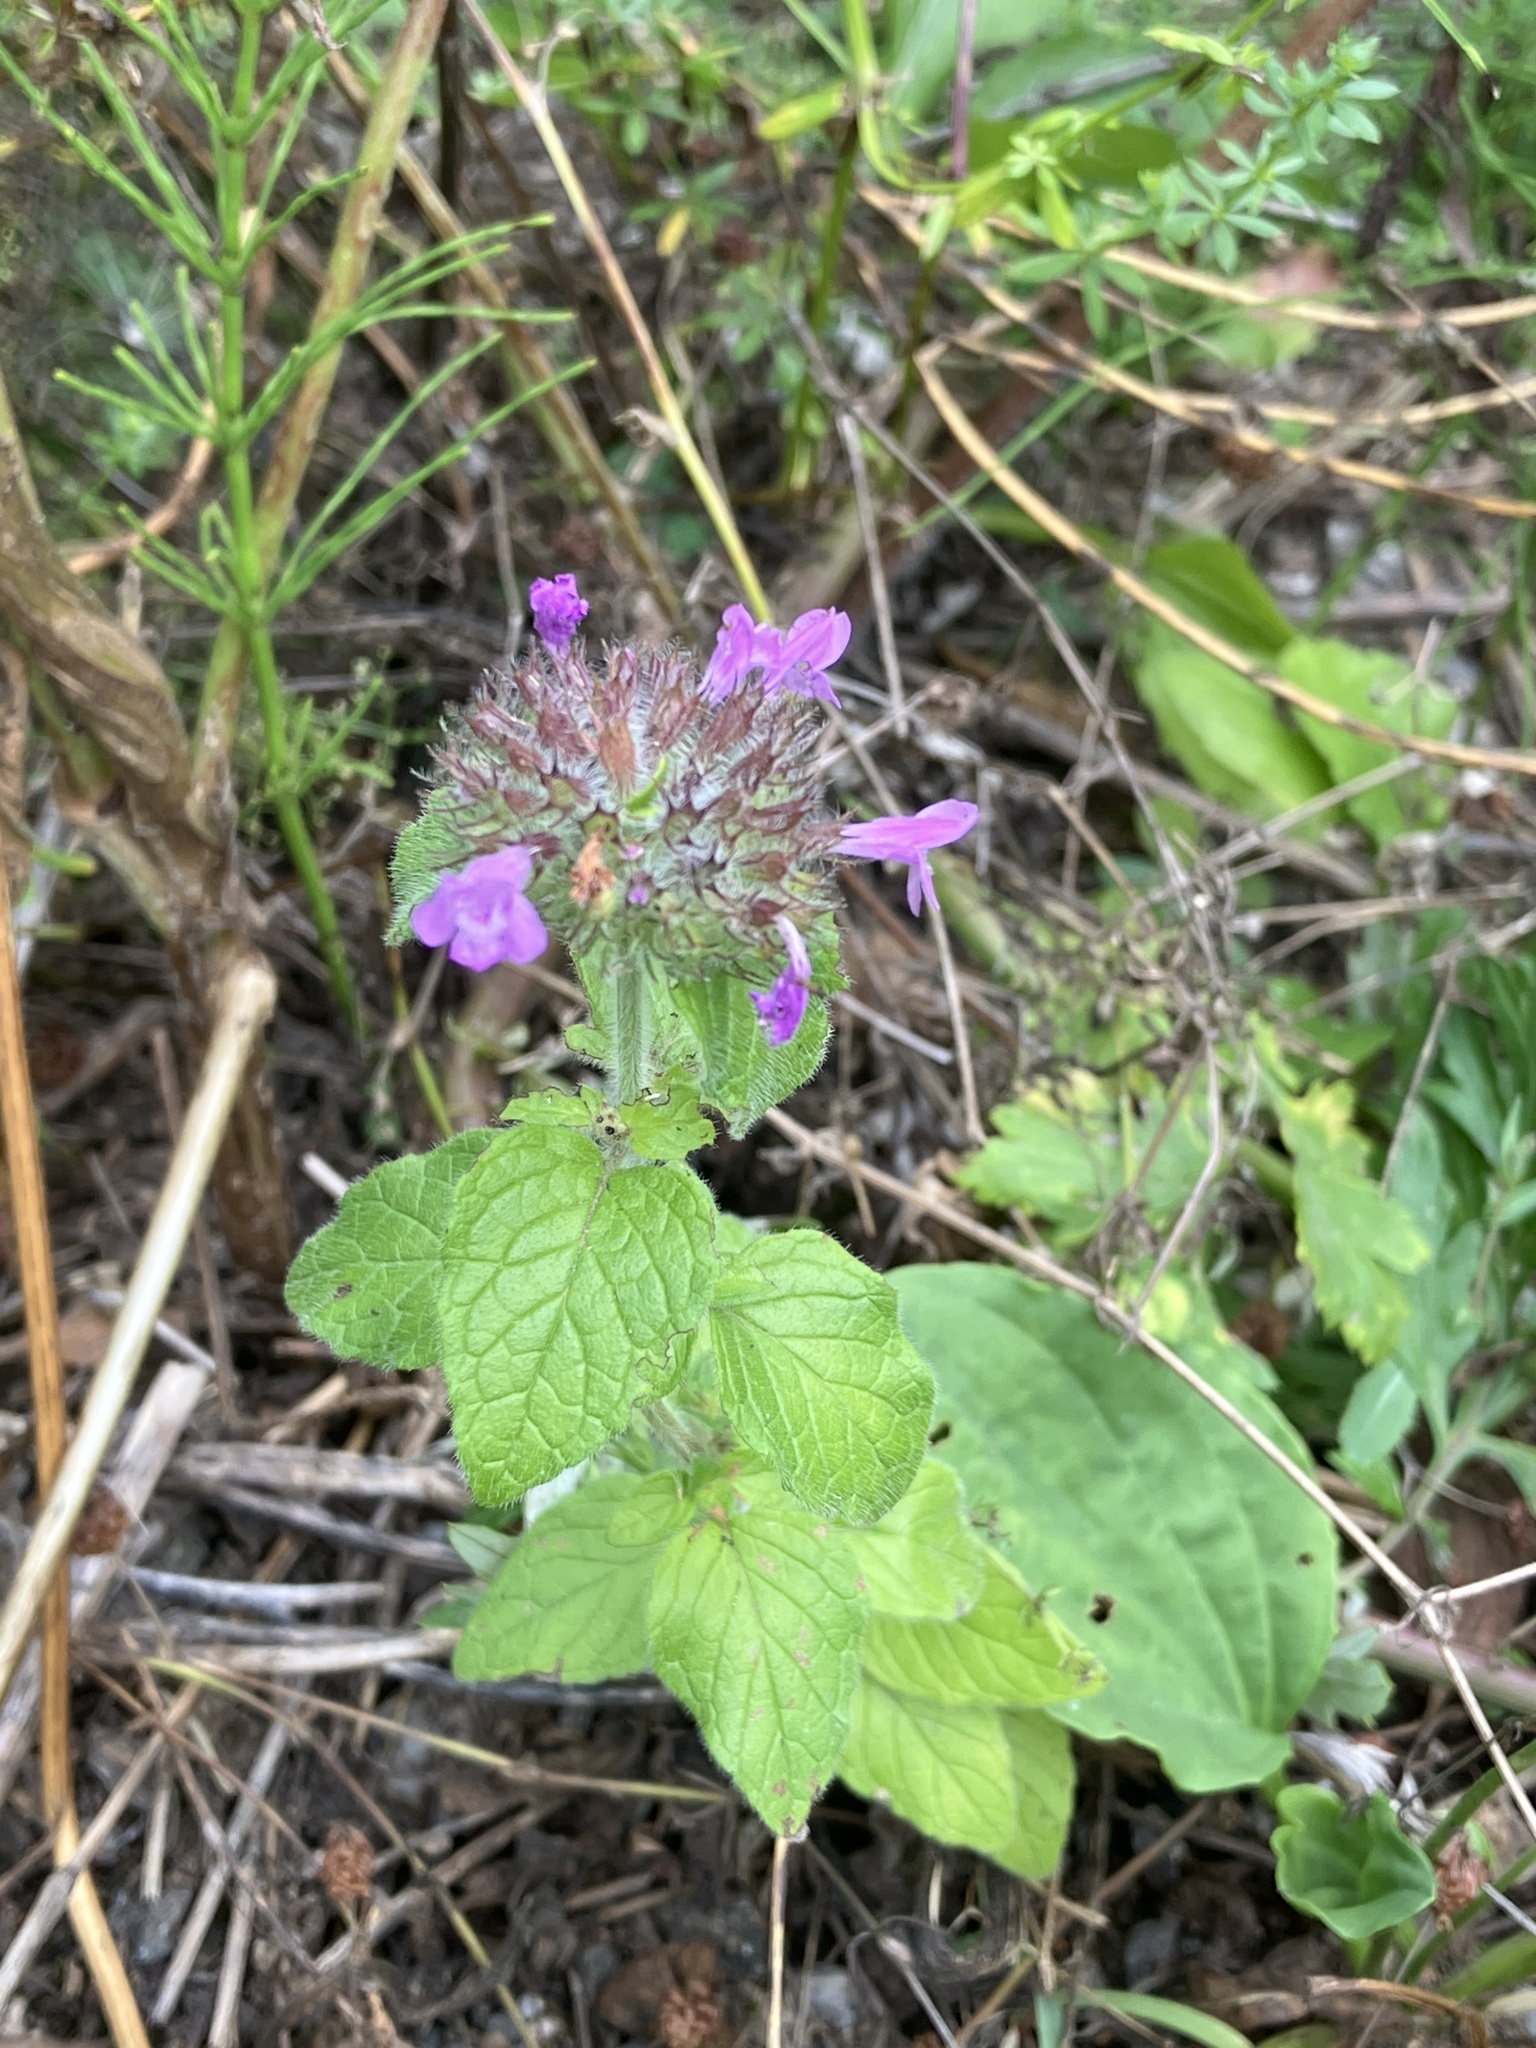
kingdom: Plantae
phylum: Tracheophyta
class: Magnoliopsida
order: Lamiales
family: Lamiaceae
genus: Clinopodium
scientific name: Clinopodium vulgare
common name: Wild basil
